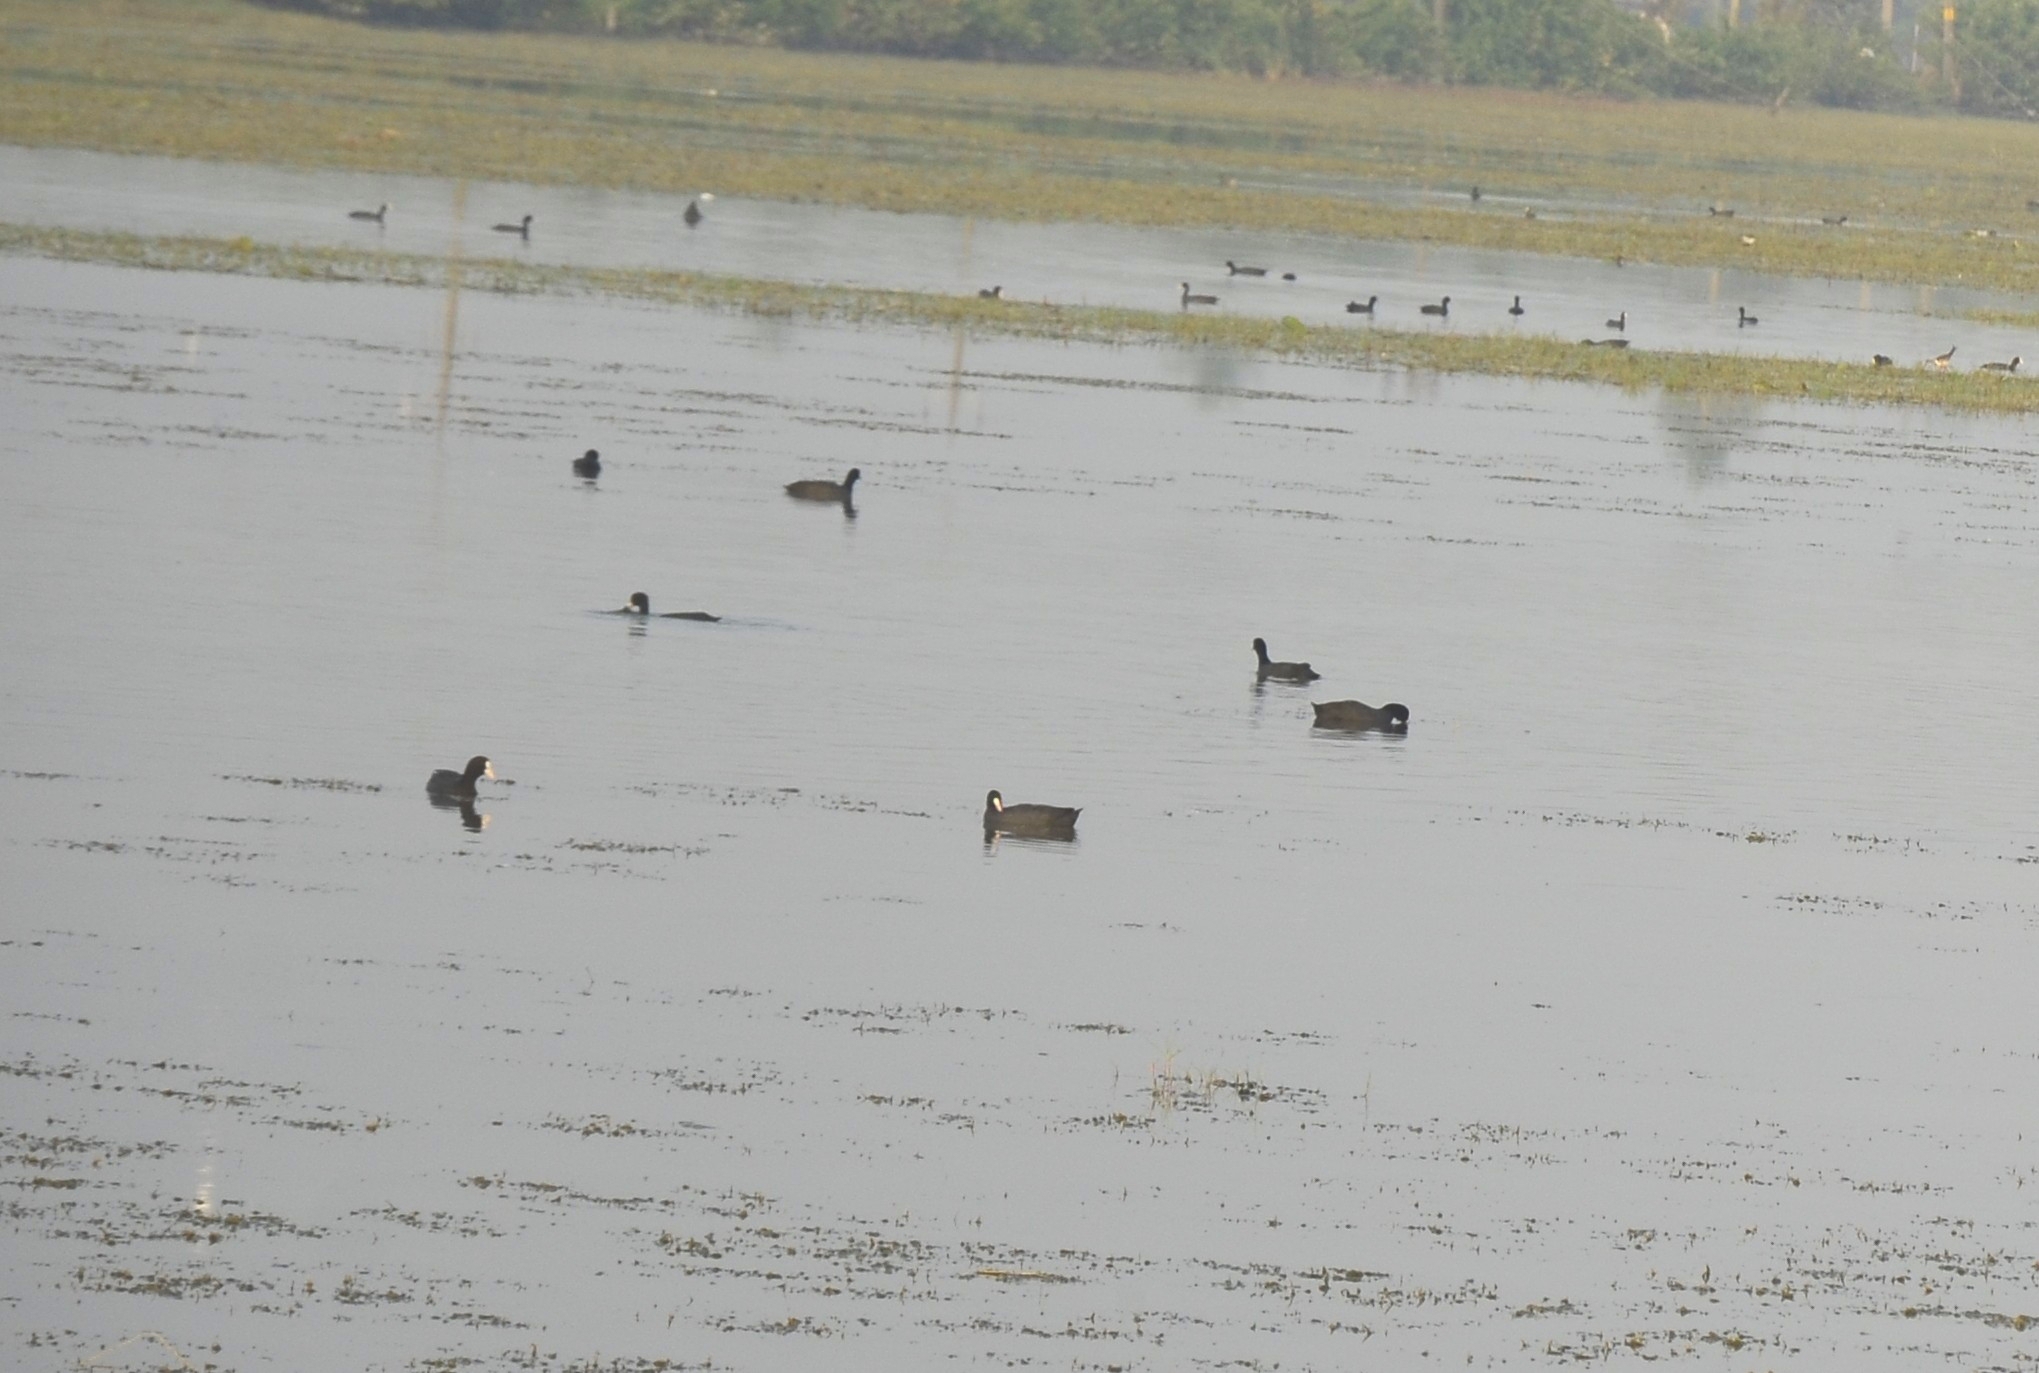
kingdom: Animalia
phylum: Chordata
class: Aves
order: Gruiformes
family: Rallidae
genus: Fulica
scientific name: Fulica atra
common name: Eurasian coot
